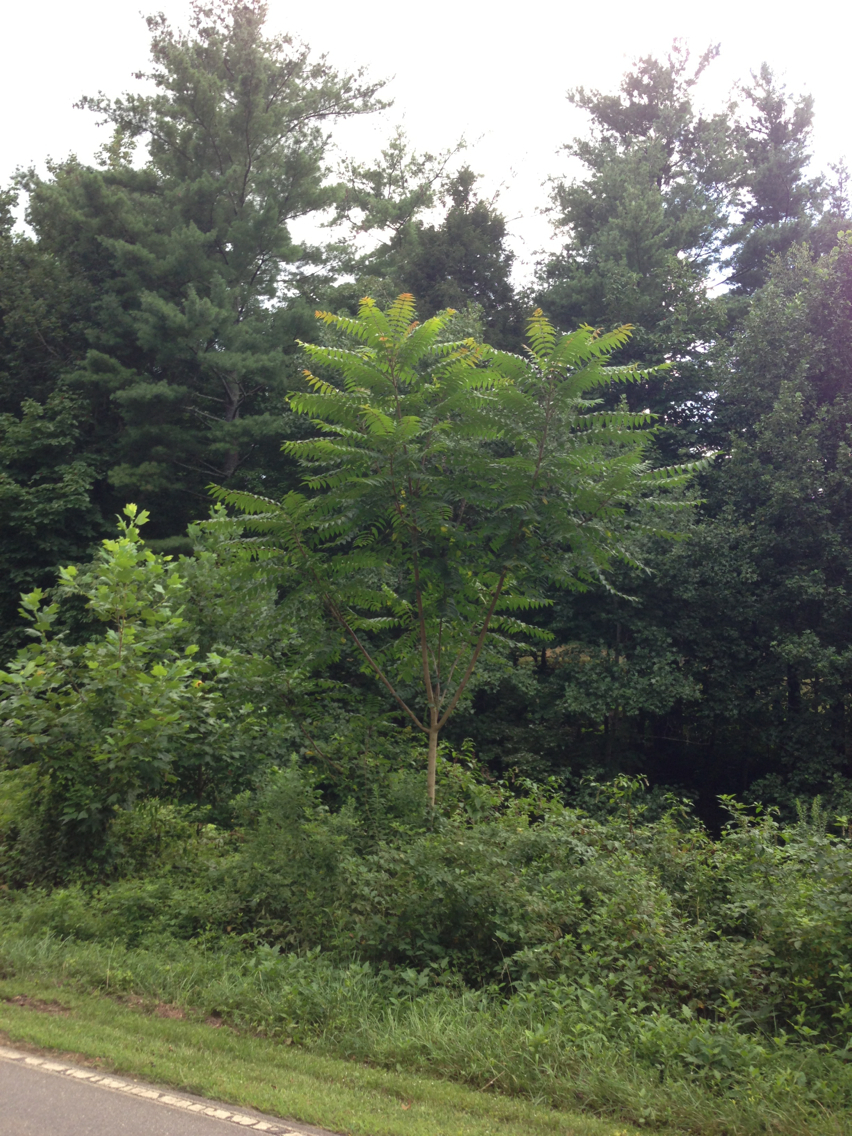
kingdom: Plantae
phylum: Tracheophyta
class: Magnoliopsida
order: Sapindales
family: Simaroubaceae
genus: Ailanthus
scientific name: Ailanthus altissima
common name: Tree-of-heaven
